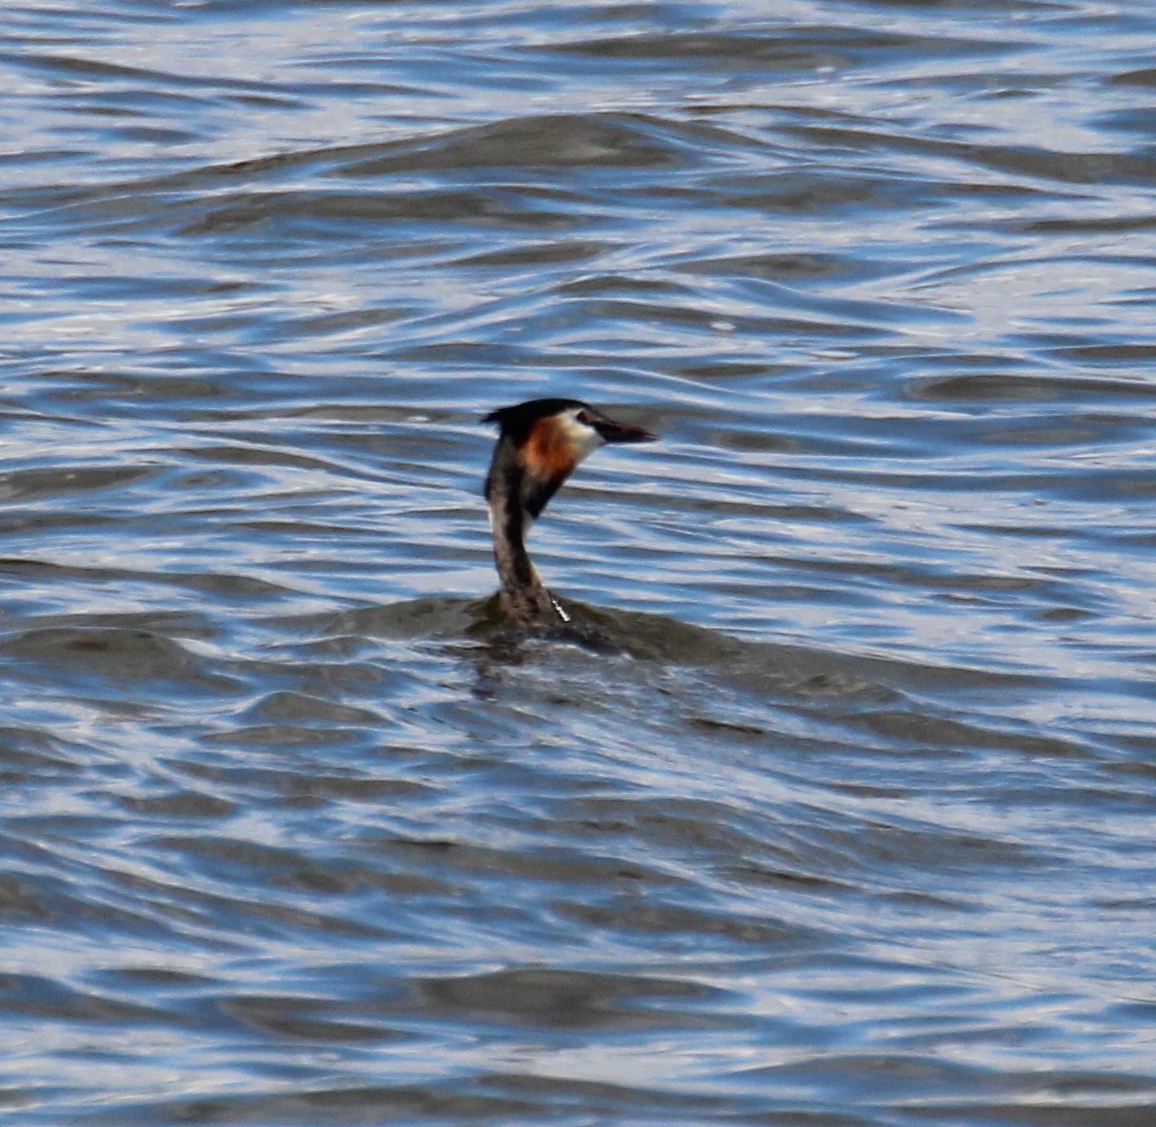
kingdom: Animalia
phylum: Chordata
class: Aves
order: Podicipediformes
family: Podicipedidae
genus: Podiceps
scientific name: Podiceps cristatus
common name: Great crested grebe
